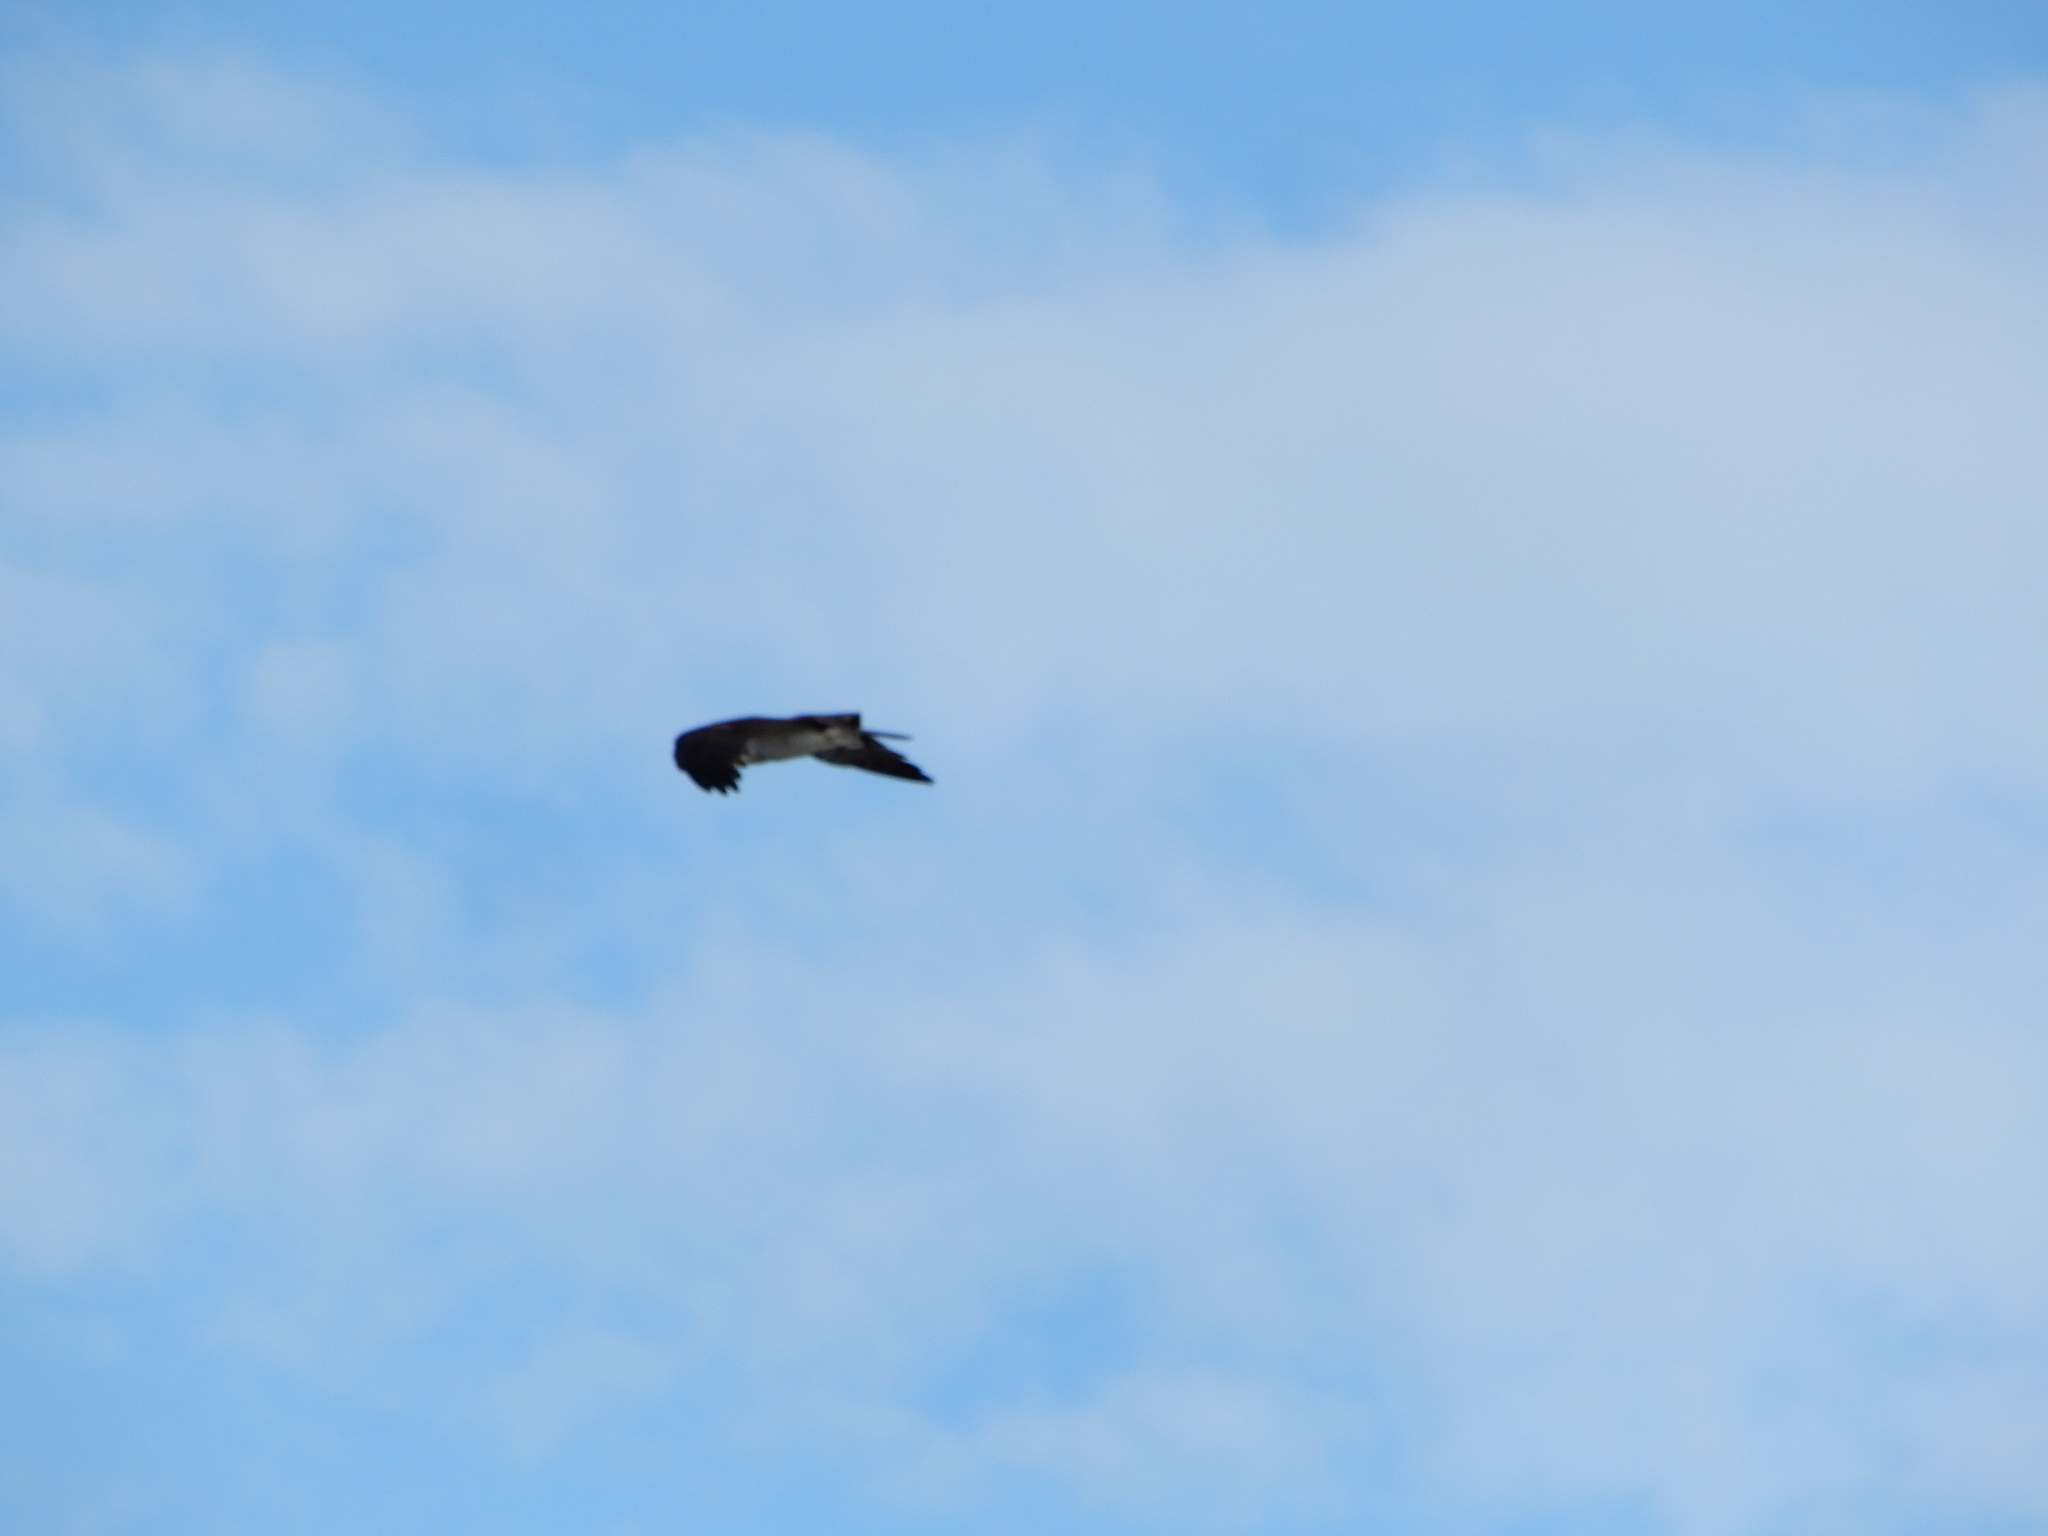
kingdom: Animalia
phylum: Chordata
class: Aves
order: Accipitriformes
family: Pandionidae
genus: Pandion
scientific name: Pandion haliaetus
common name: Osprey
